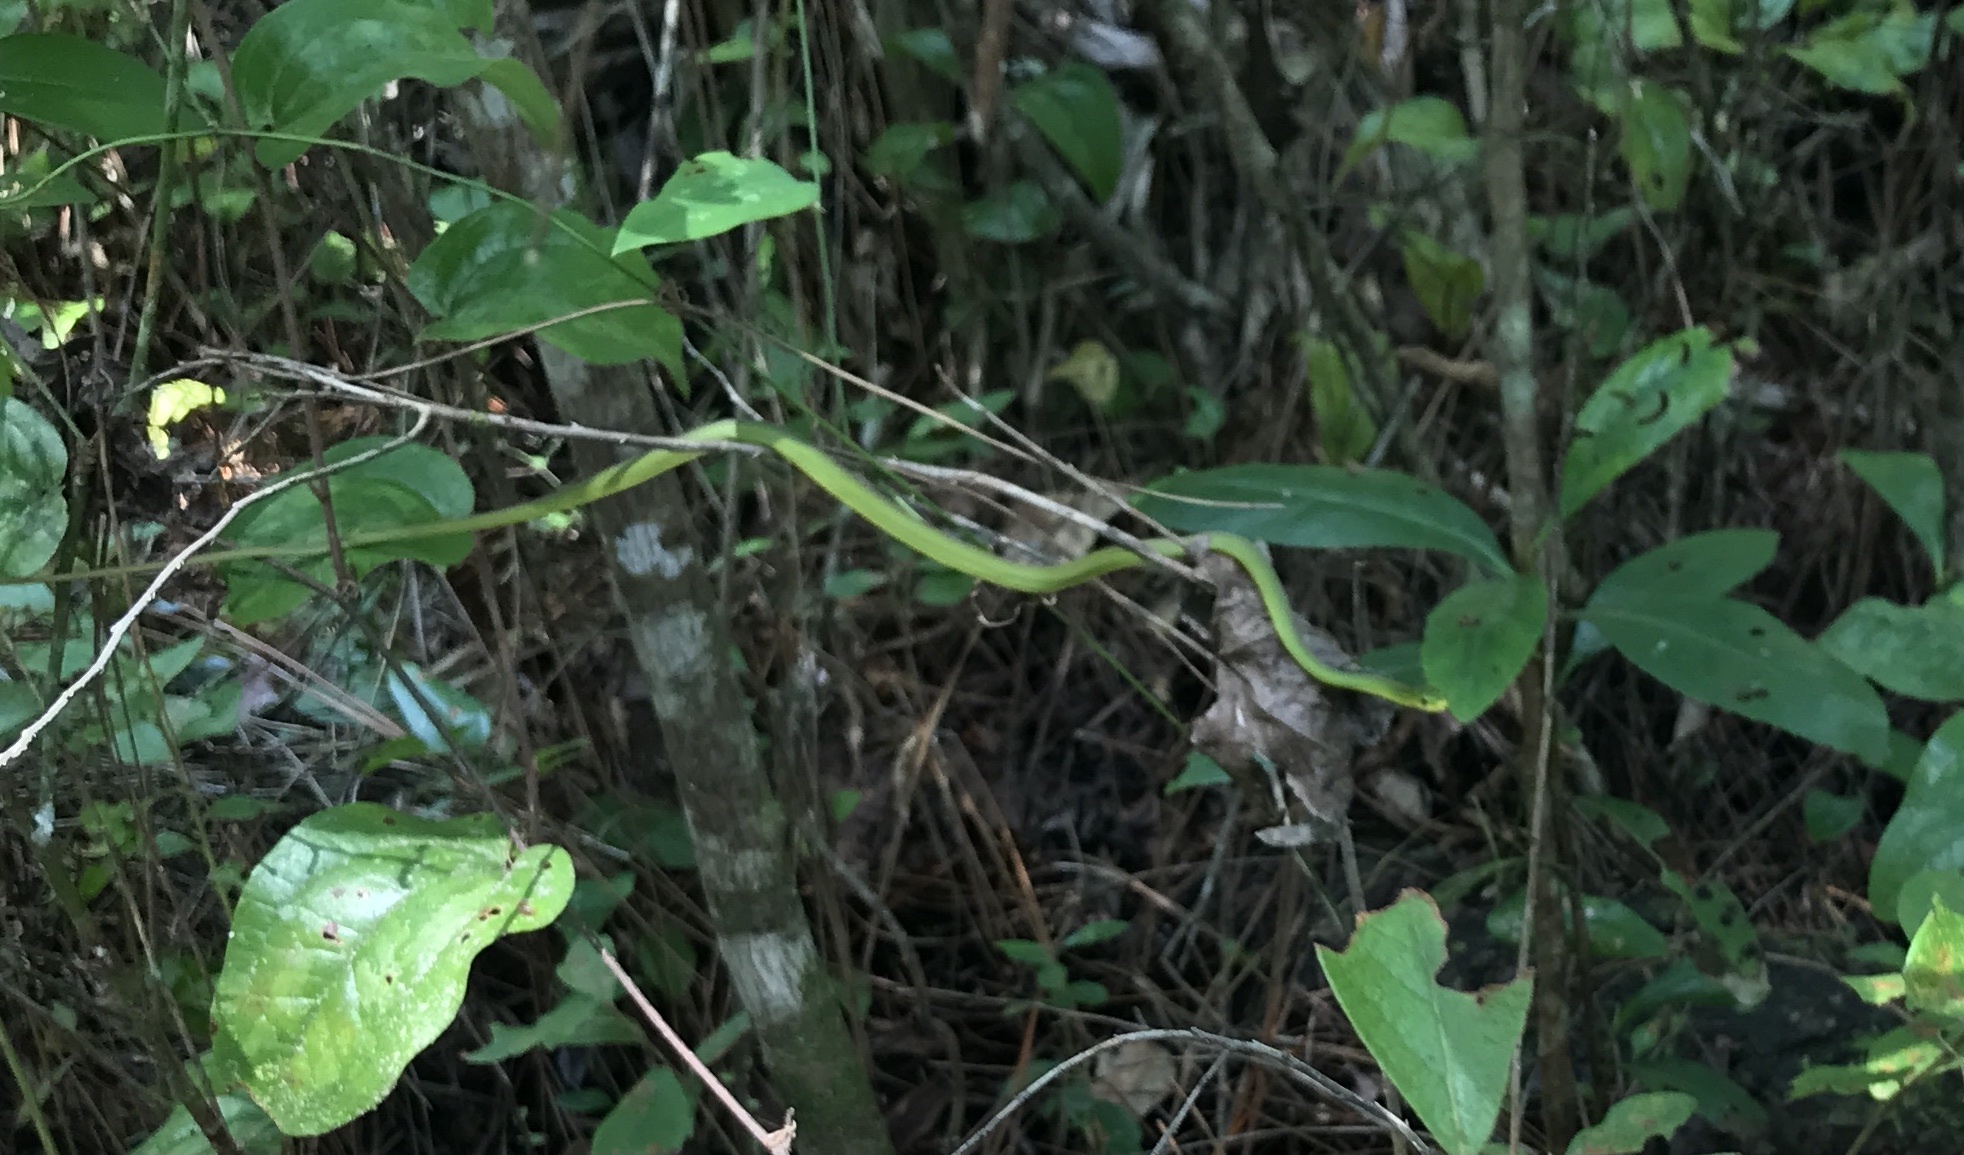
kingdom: Animalia
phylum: Chordata
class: Squamata
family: Colubridae
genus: Opheodrys
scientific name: Opheodrys aestivus
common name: Rough greensnake
